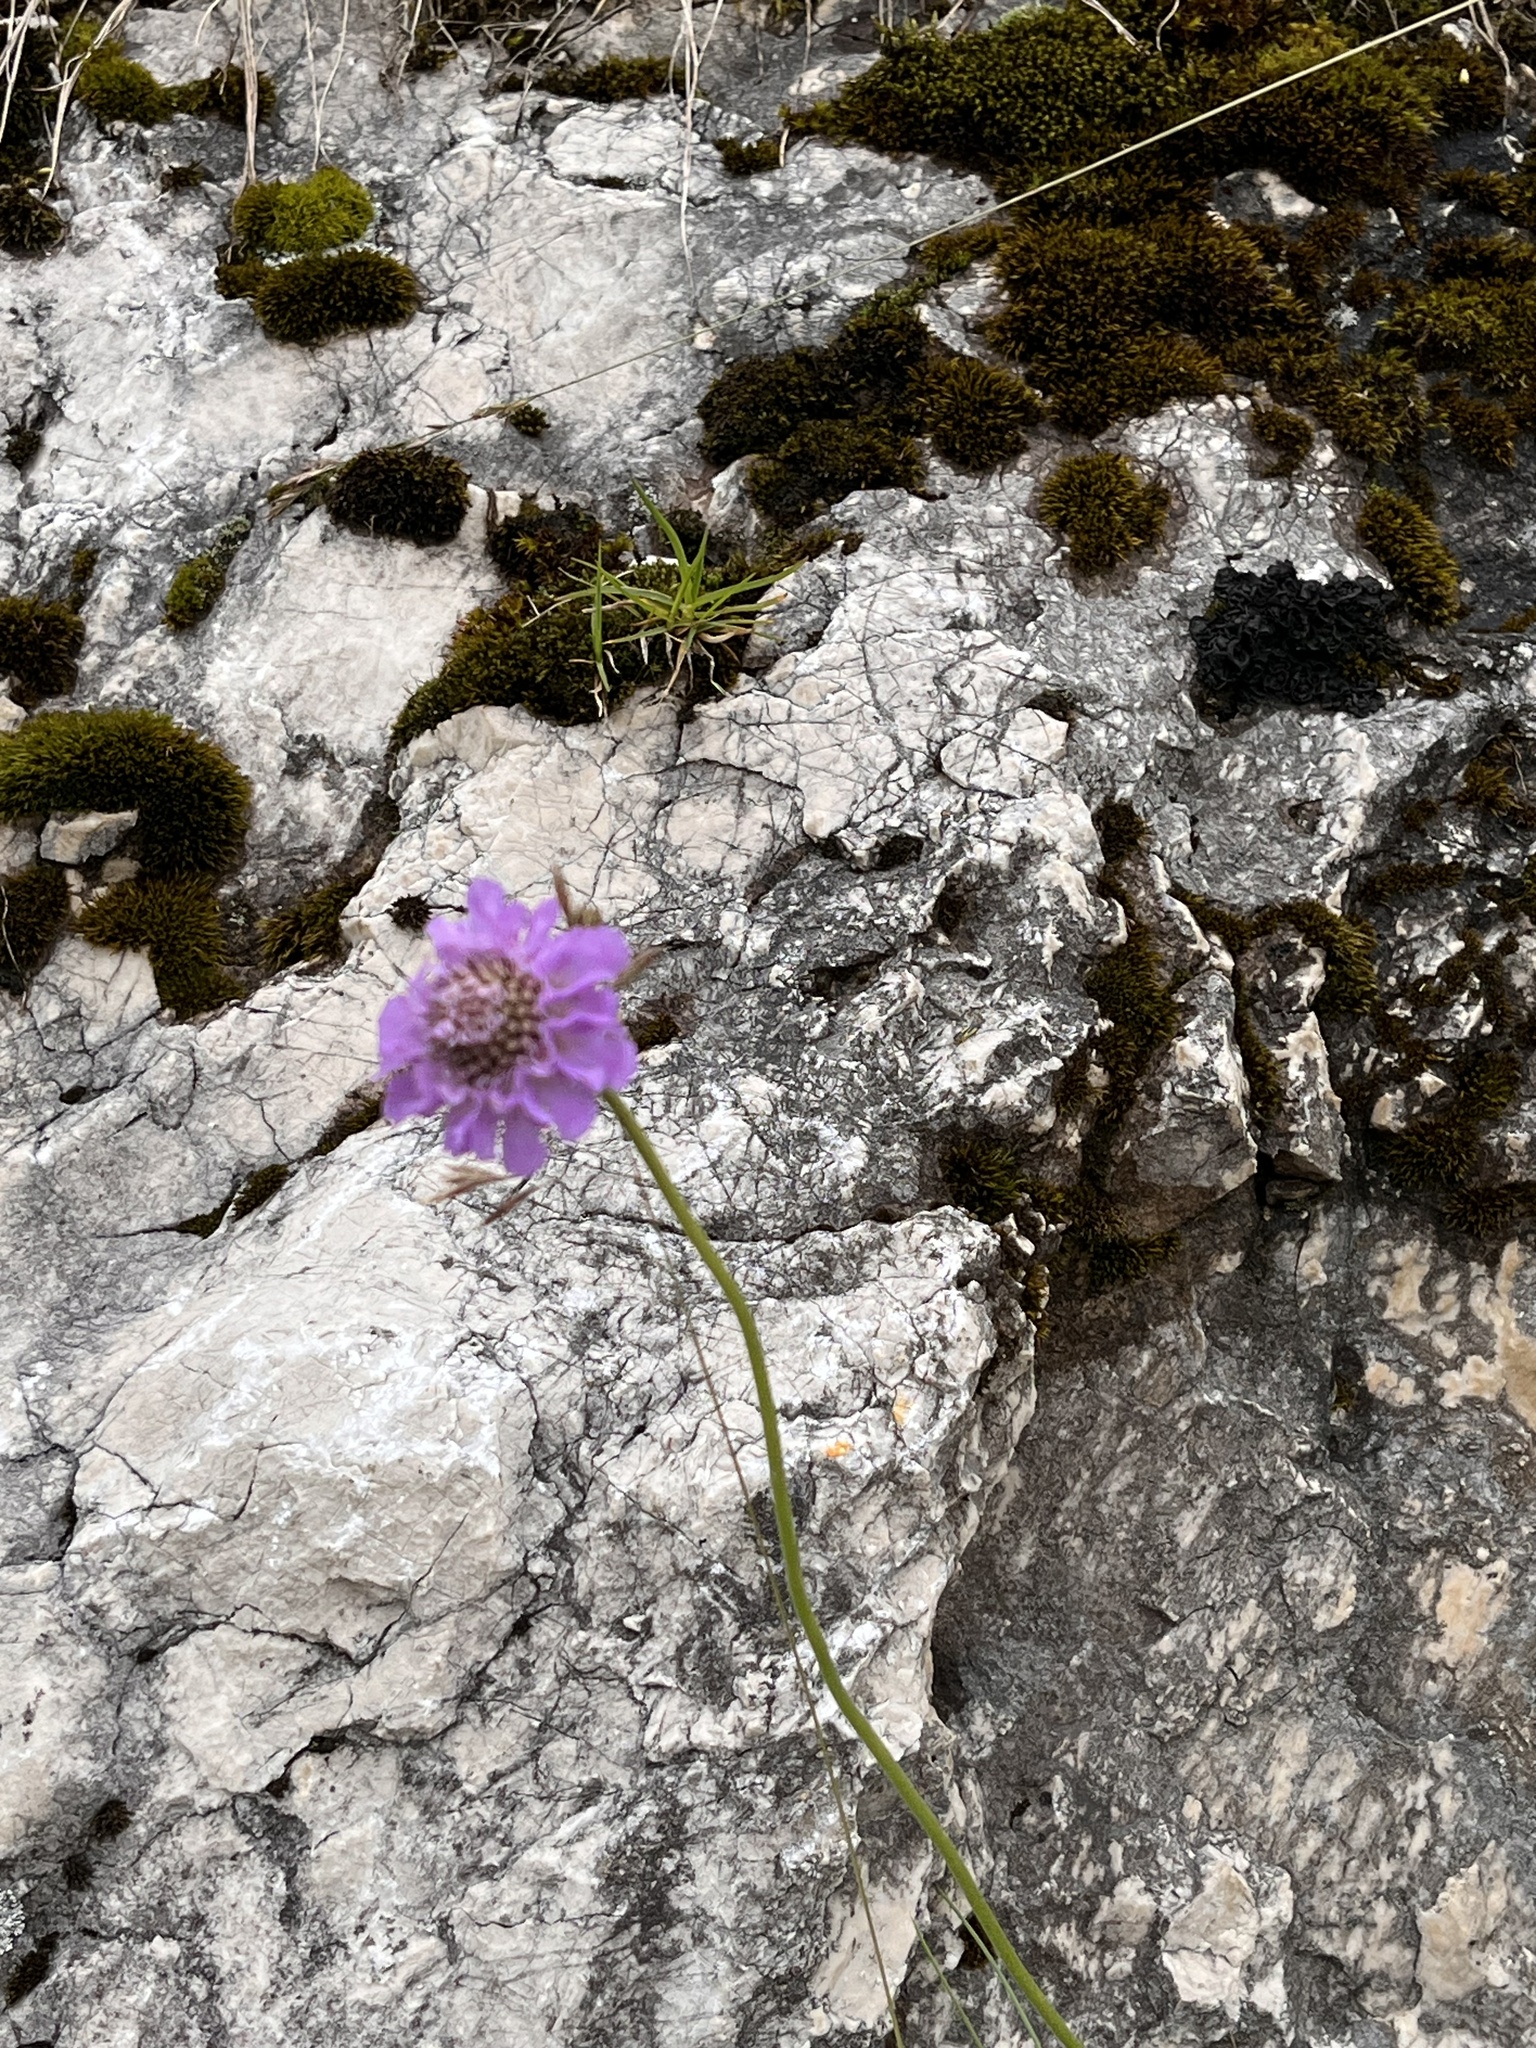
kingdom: Plantae
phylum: Tracheophyta
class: Magnoliopsida
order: Dipsacales
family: Caprifoliaceae
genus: Scabiosa
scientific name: Scabiosa lucida
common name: Shining scabious
